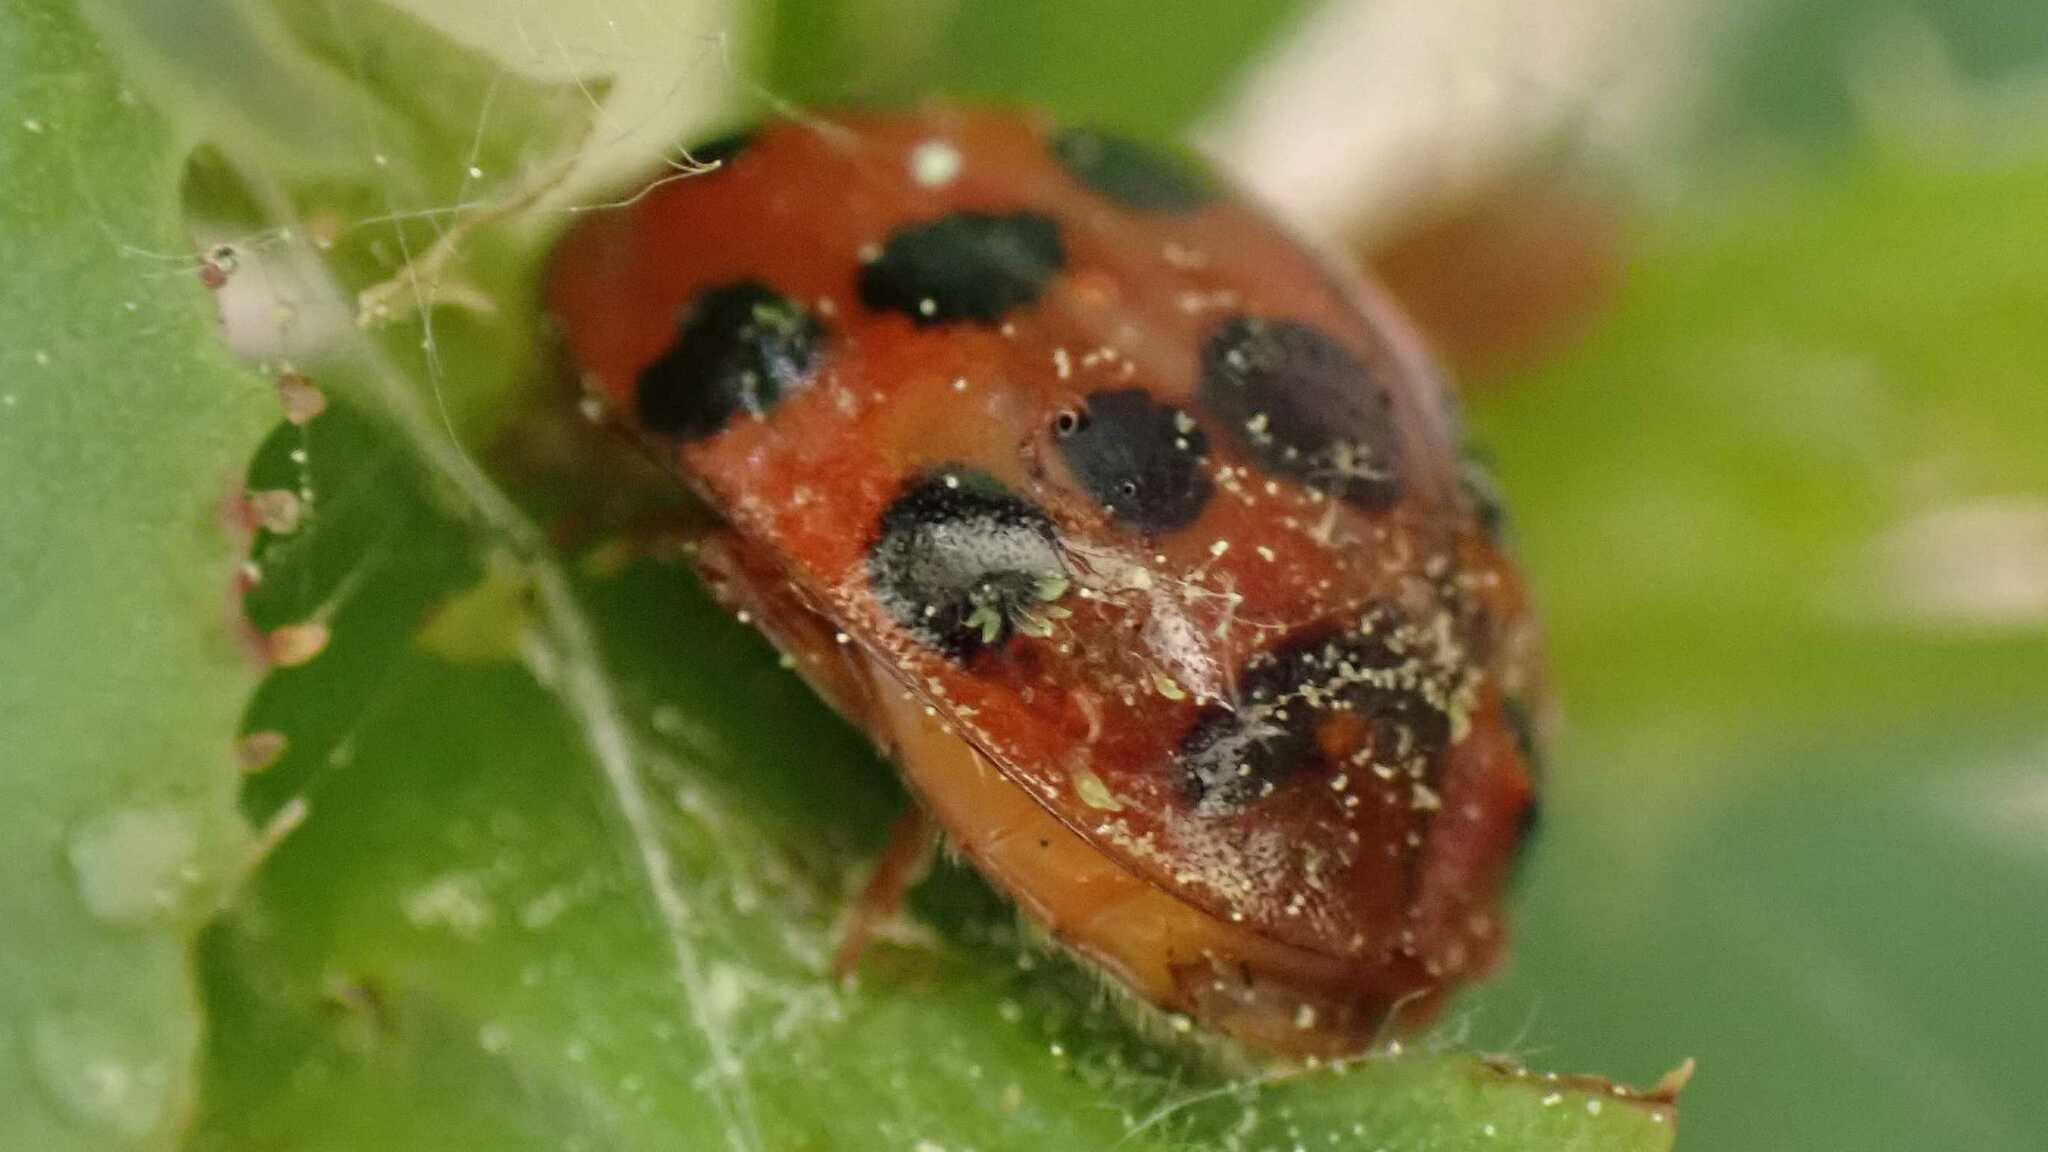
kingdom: Fungi
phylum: Ascomycota
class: Laboulbeniomycetes
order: Laboulbeniales
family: Laboulbeniaceae
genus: Hesperomyces
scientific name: Hesperomyces harmoniae
